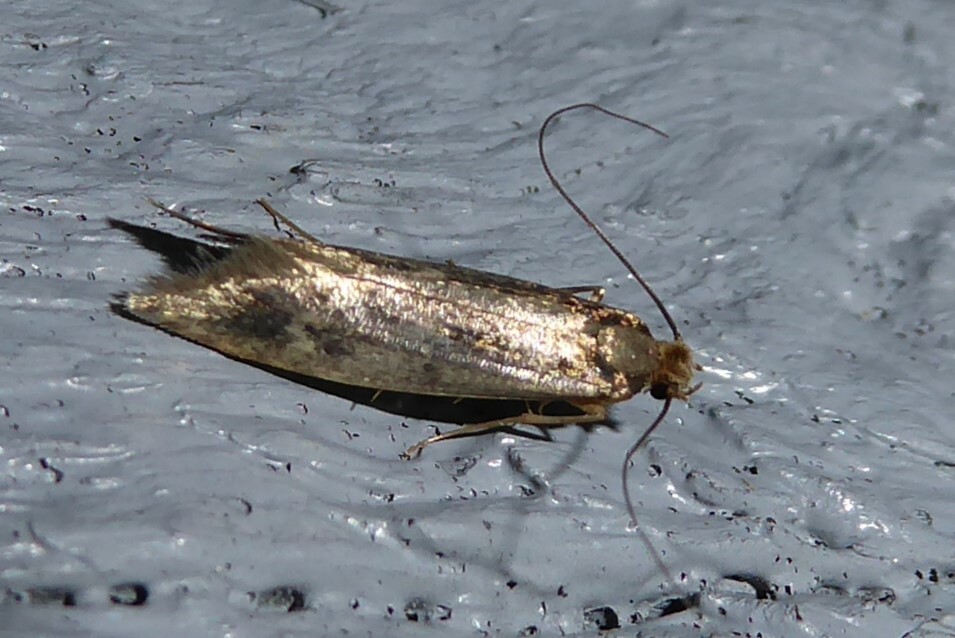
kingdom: Animalia
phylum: Arthropoda
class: Insecta
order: Lepidoptera
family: Tineidae
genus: Tinea
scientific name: Tinea pallescentella
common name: Large pale clothes moth
